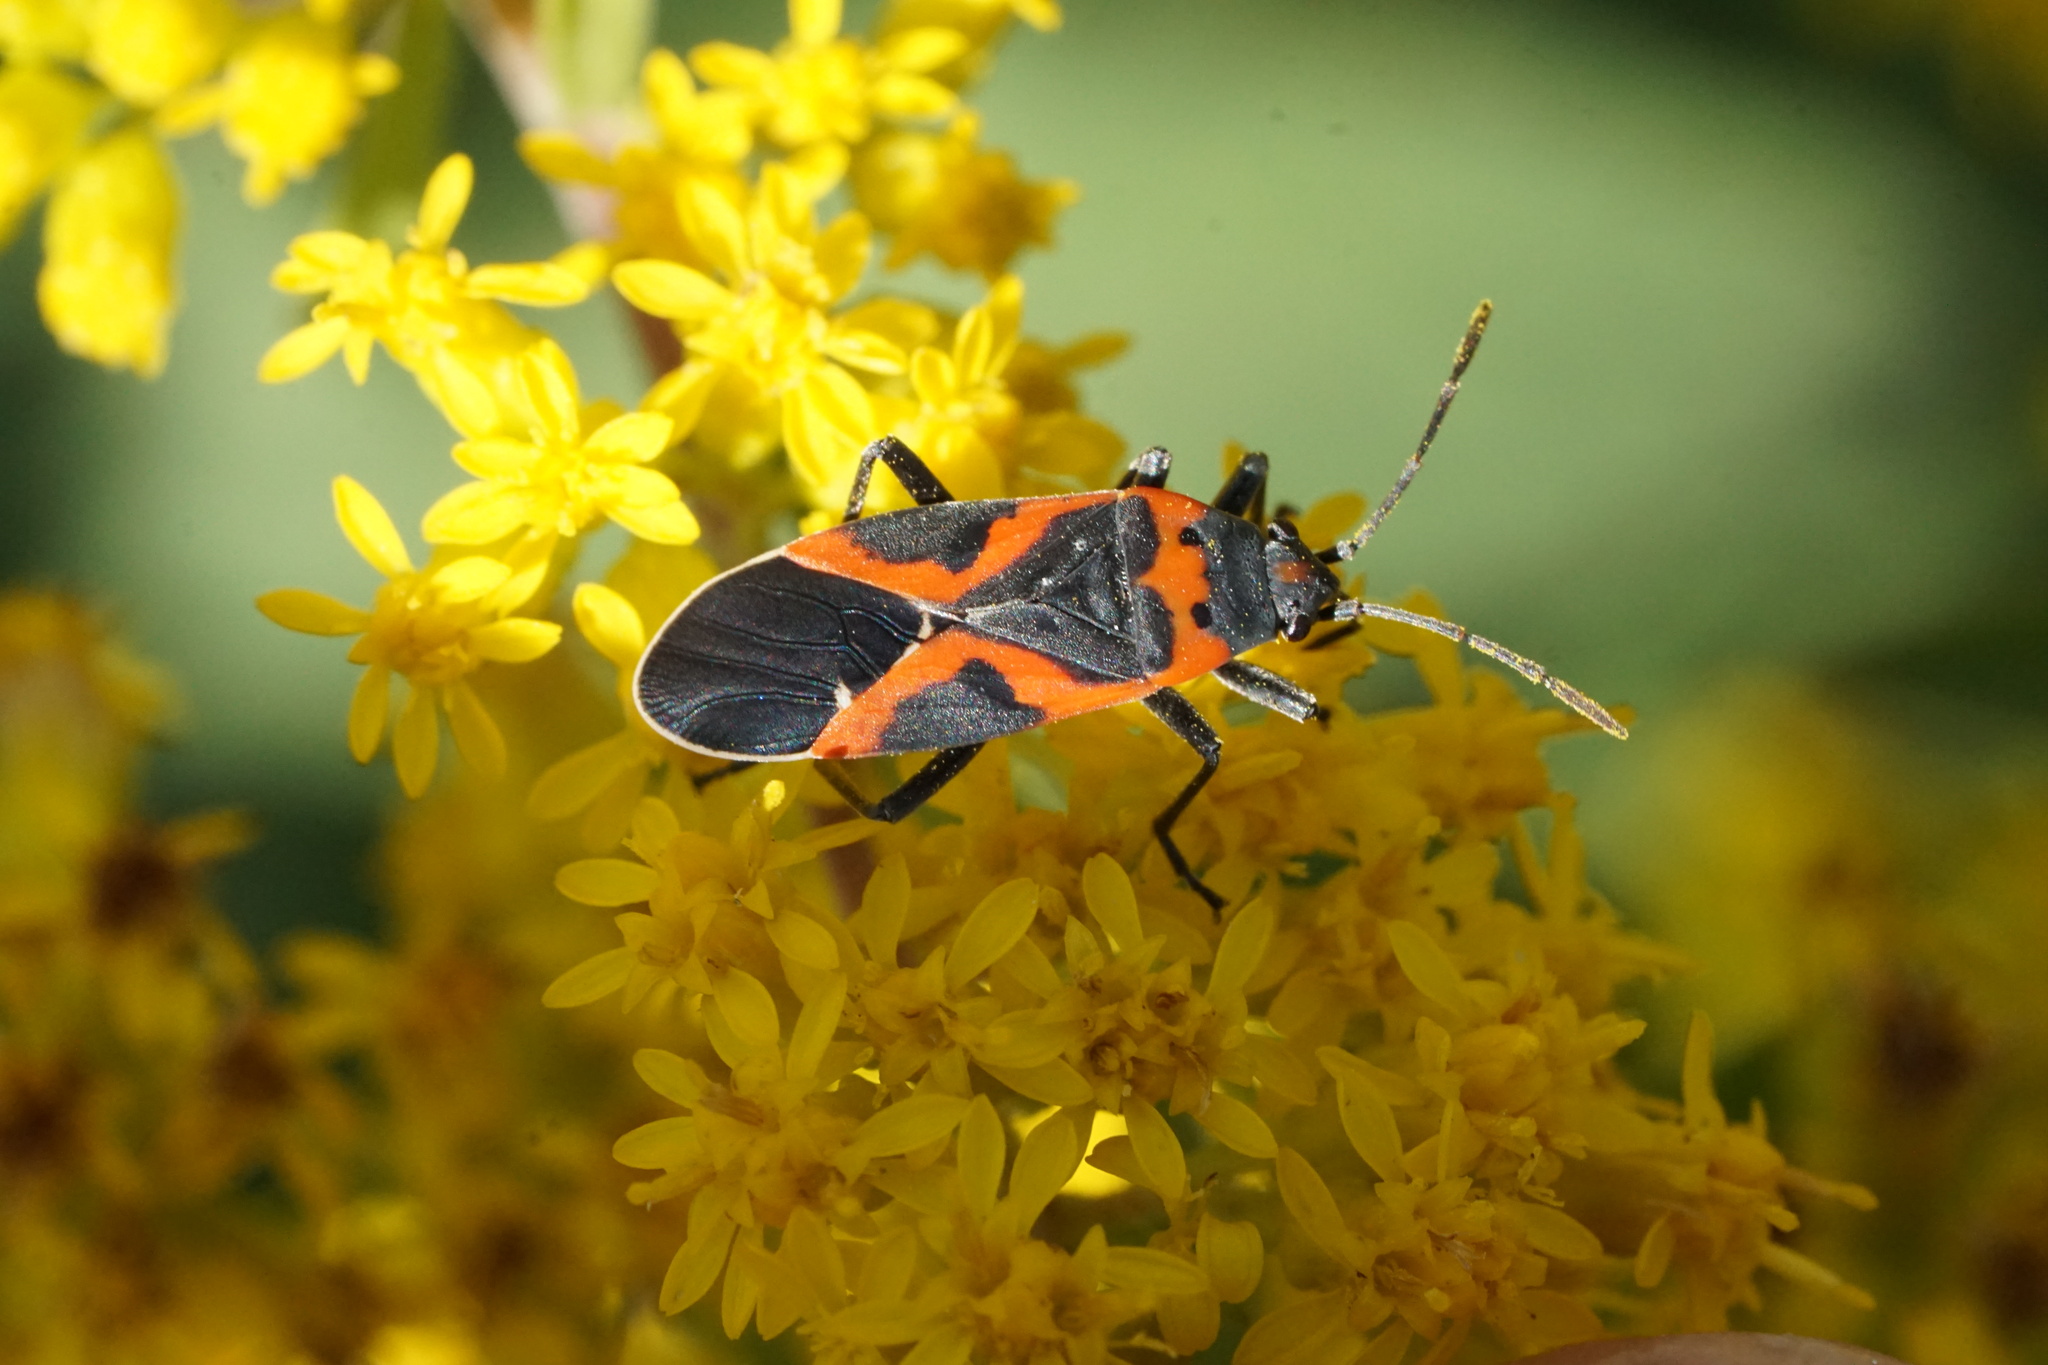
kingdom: Animalia
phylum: Arthropoda
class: Insecta
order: Hemiptera
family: Lygaeidae
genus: Lygaeus
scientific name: Lygaeus kalmii
